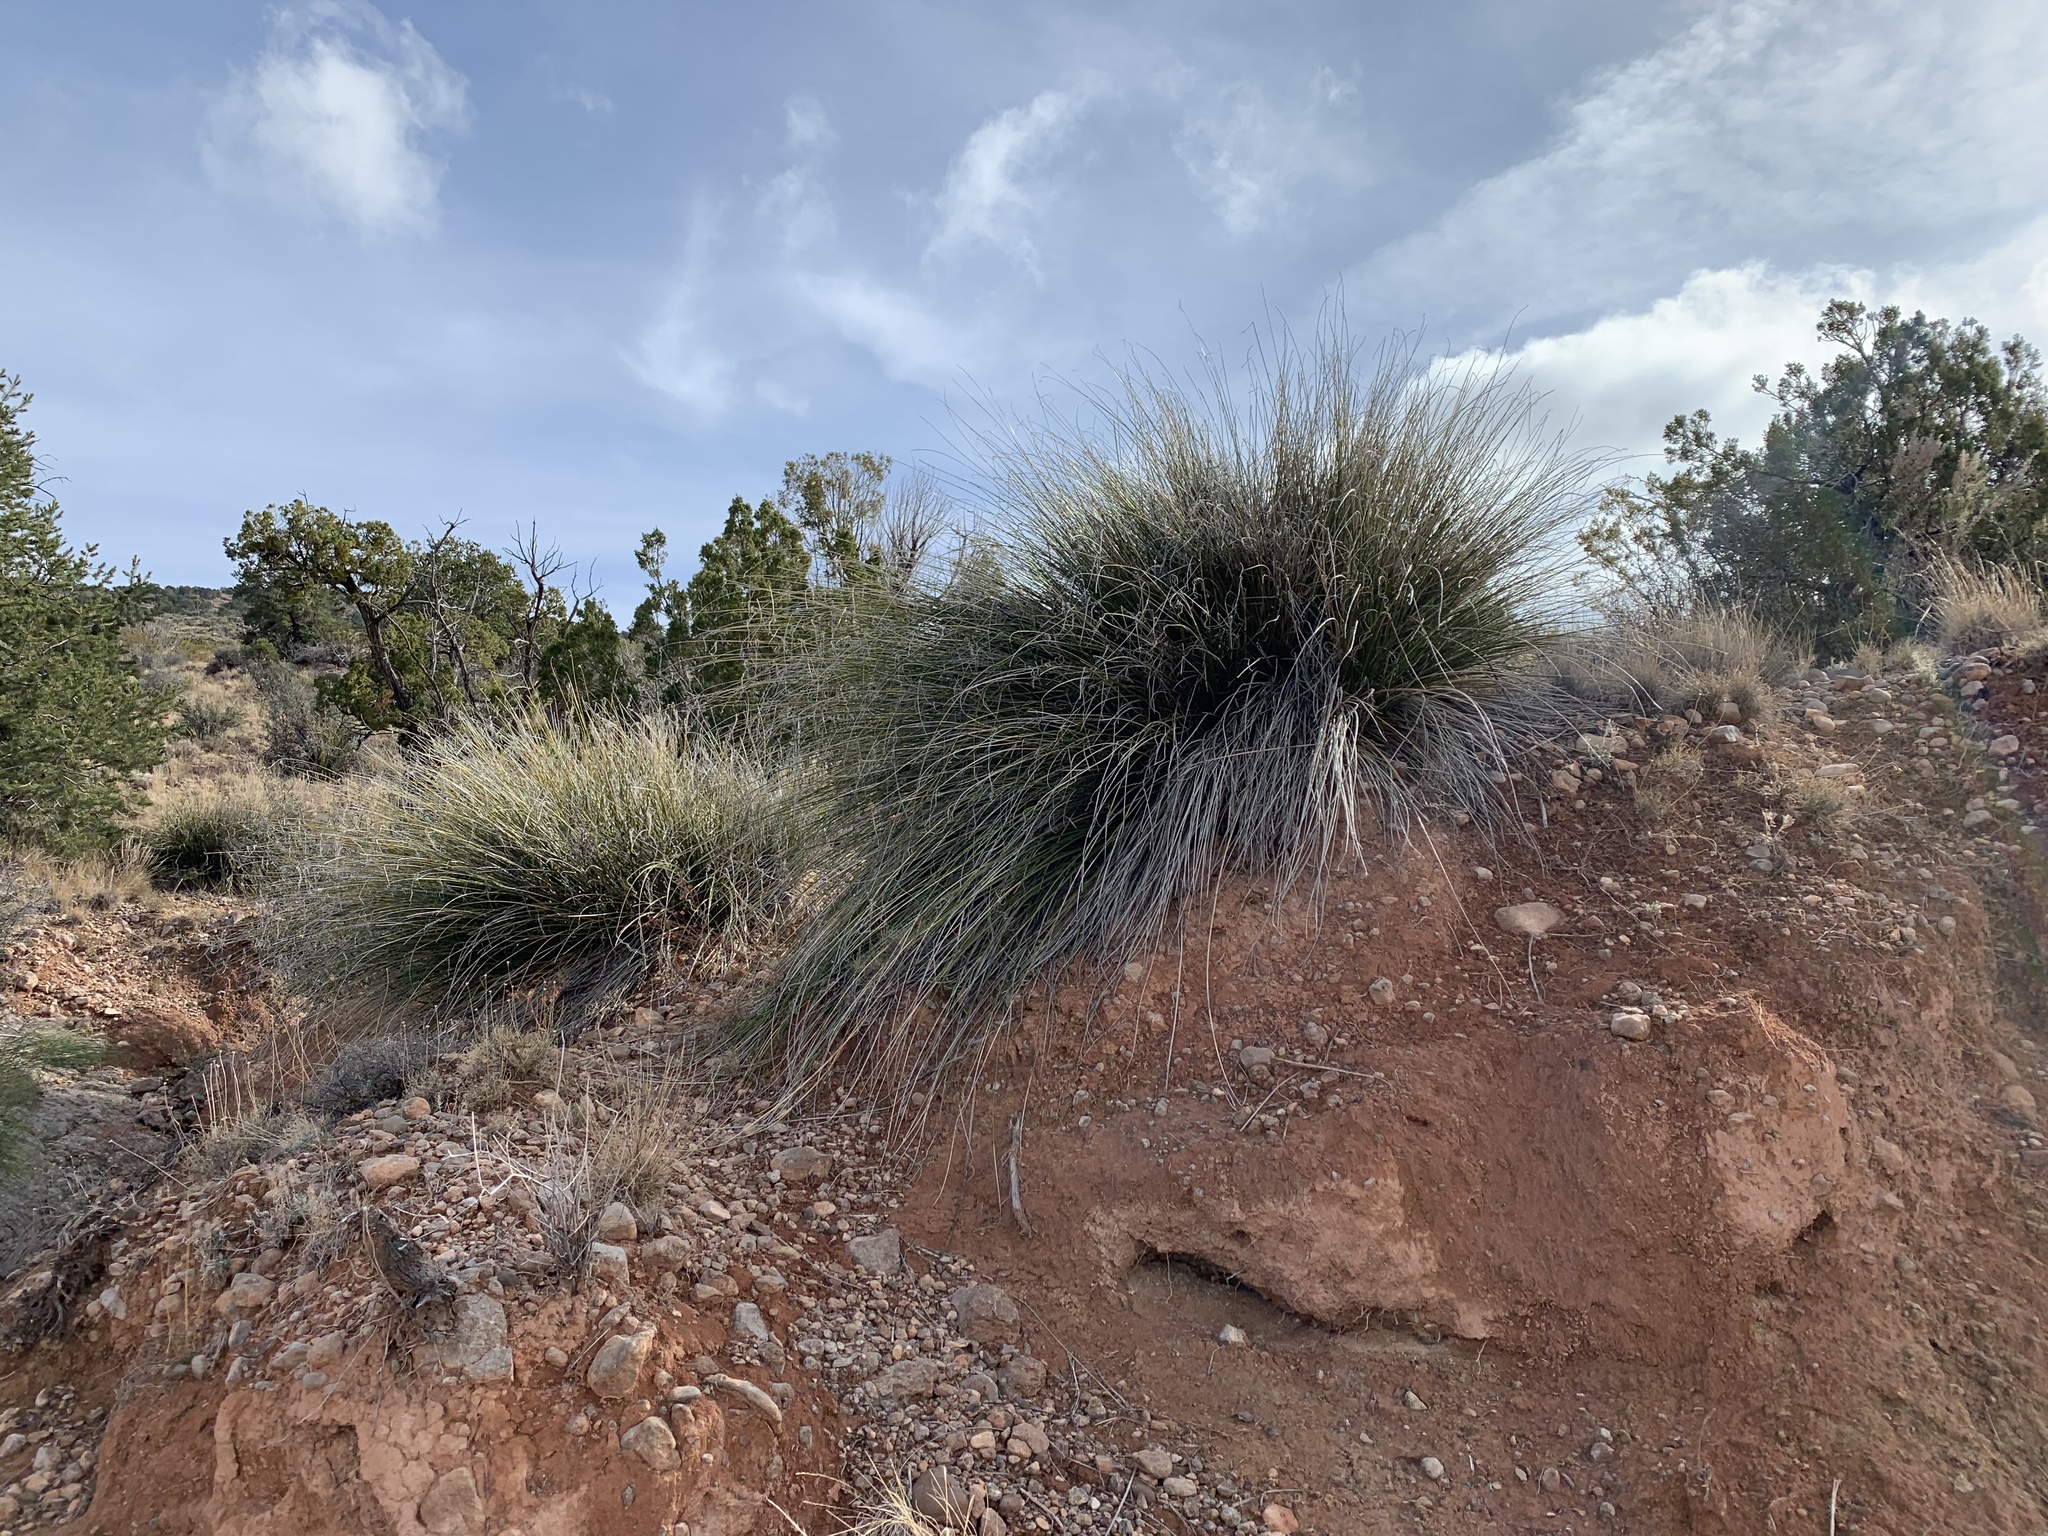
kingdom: Plantae
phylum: Tracheophyta
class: Liliopsida
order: Asparagales
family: Asparagaceae
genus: Nolina
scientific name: Nolina texana
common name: Texas sacahuiste
